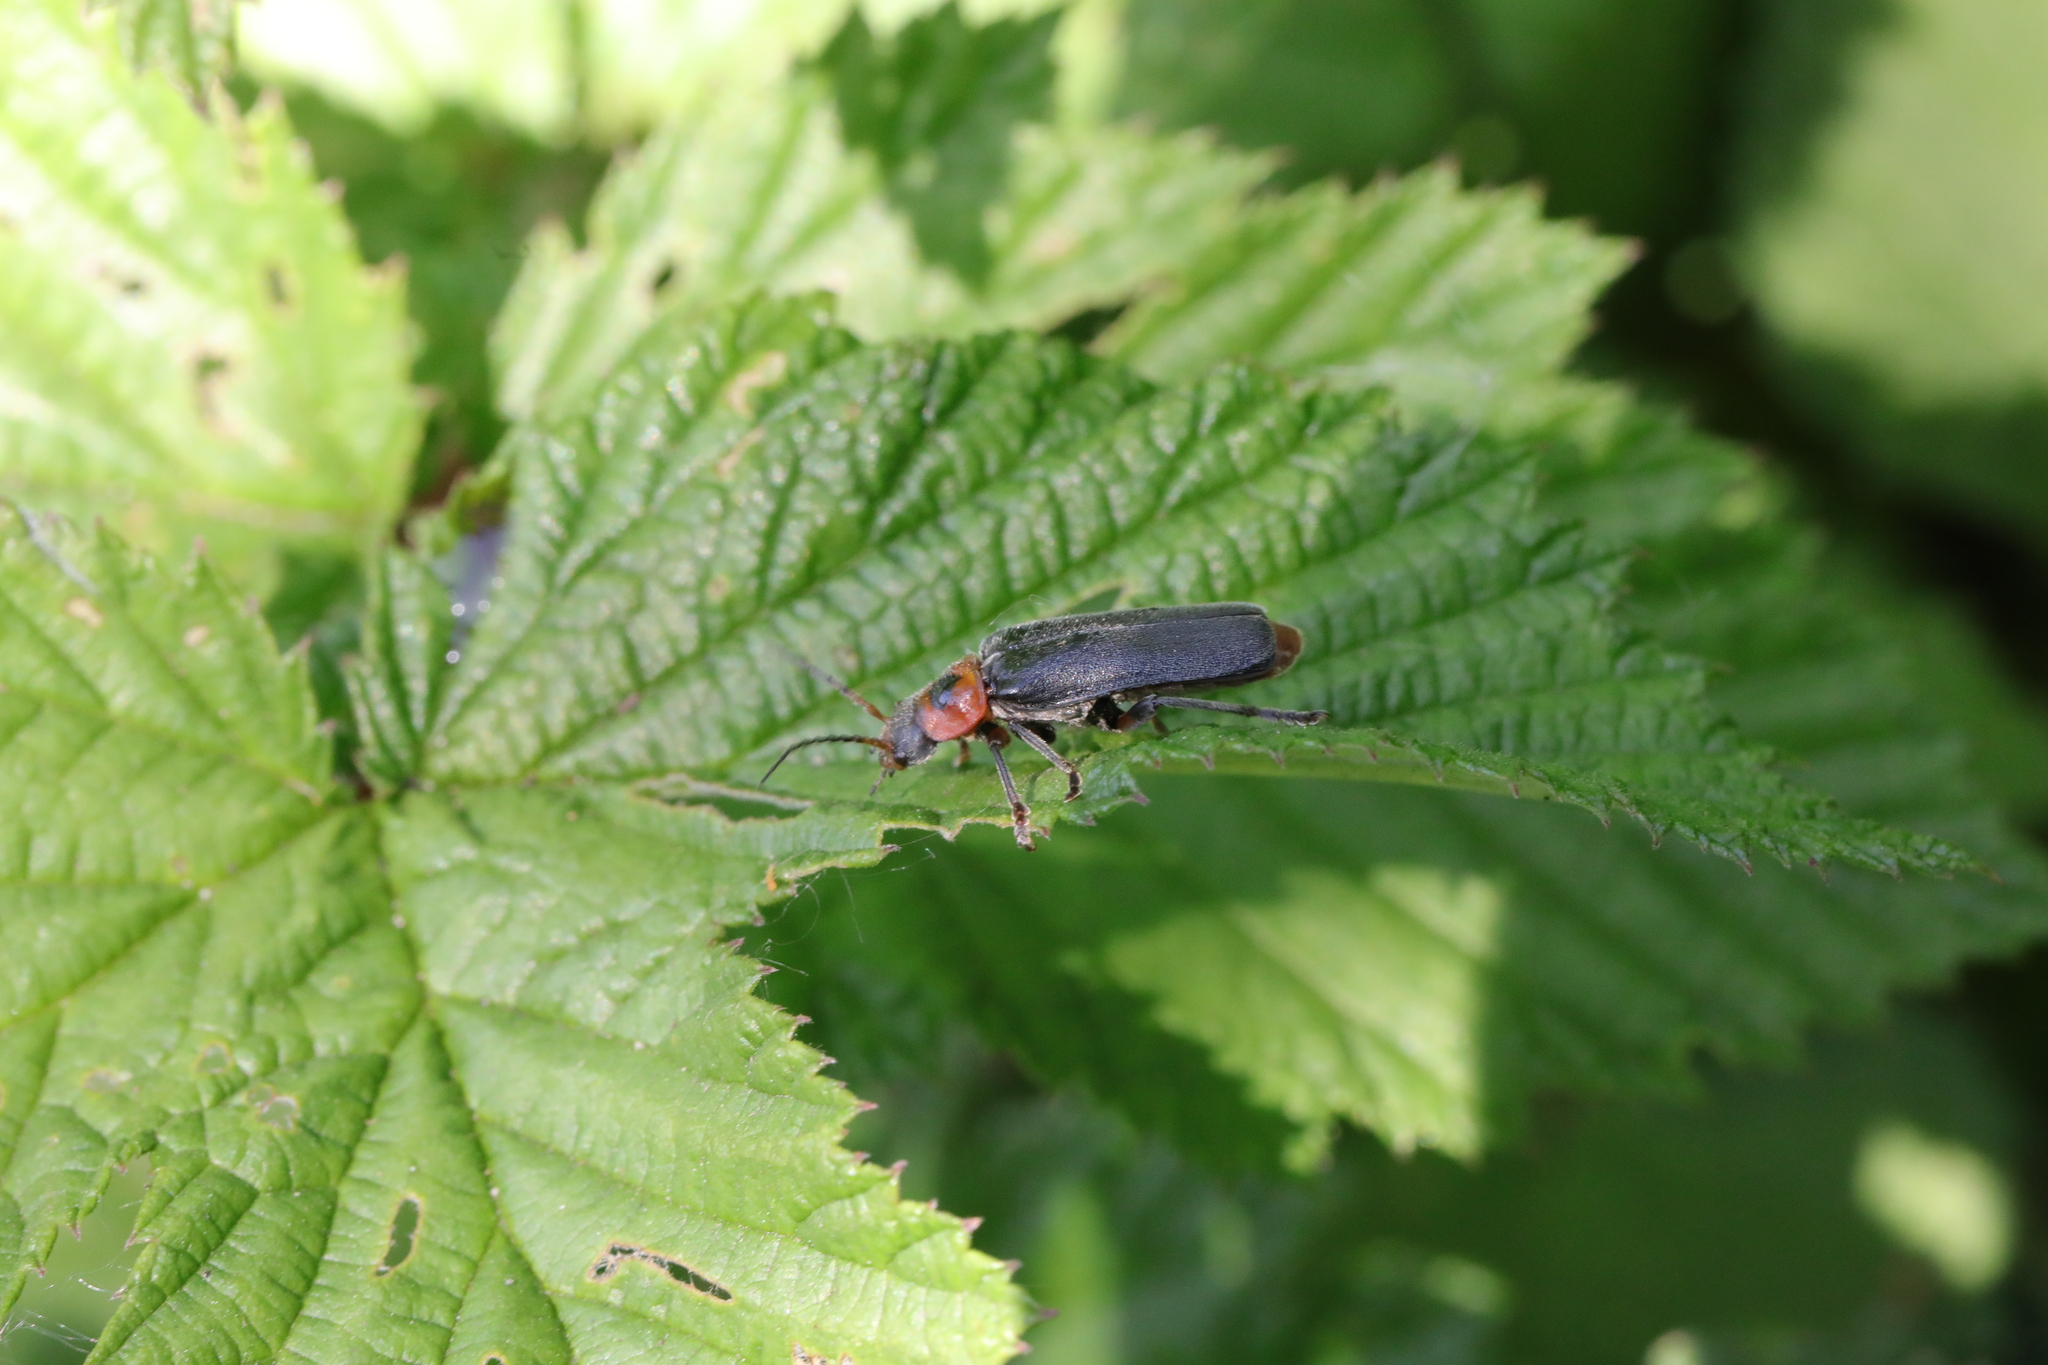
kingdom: Animalia
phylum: Arthropoda
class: Insecta
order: Coleoptera
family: Cantharidae
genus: Cantharis
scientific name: Cantharis rustica
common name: Soldier beetle
